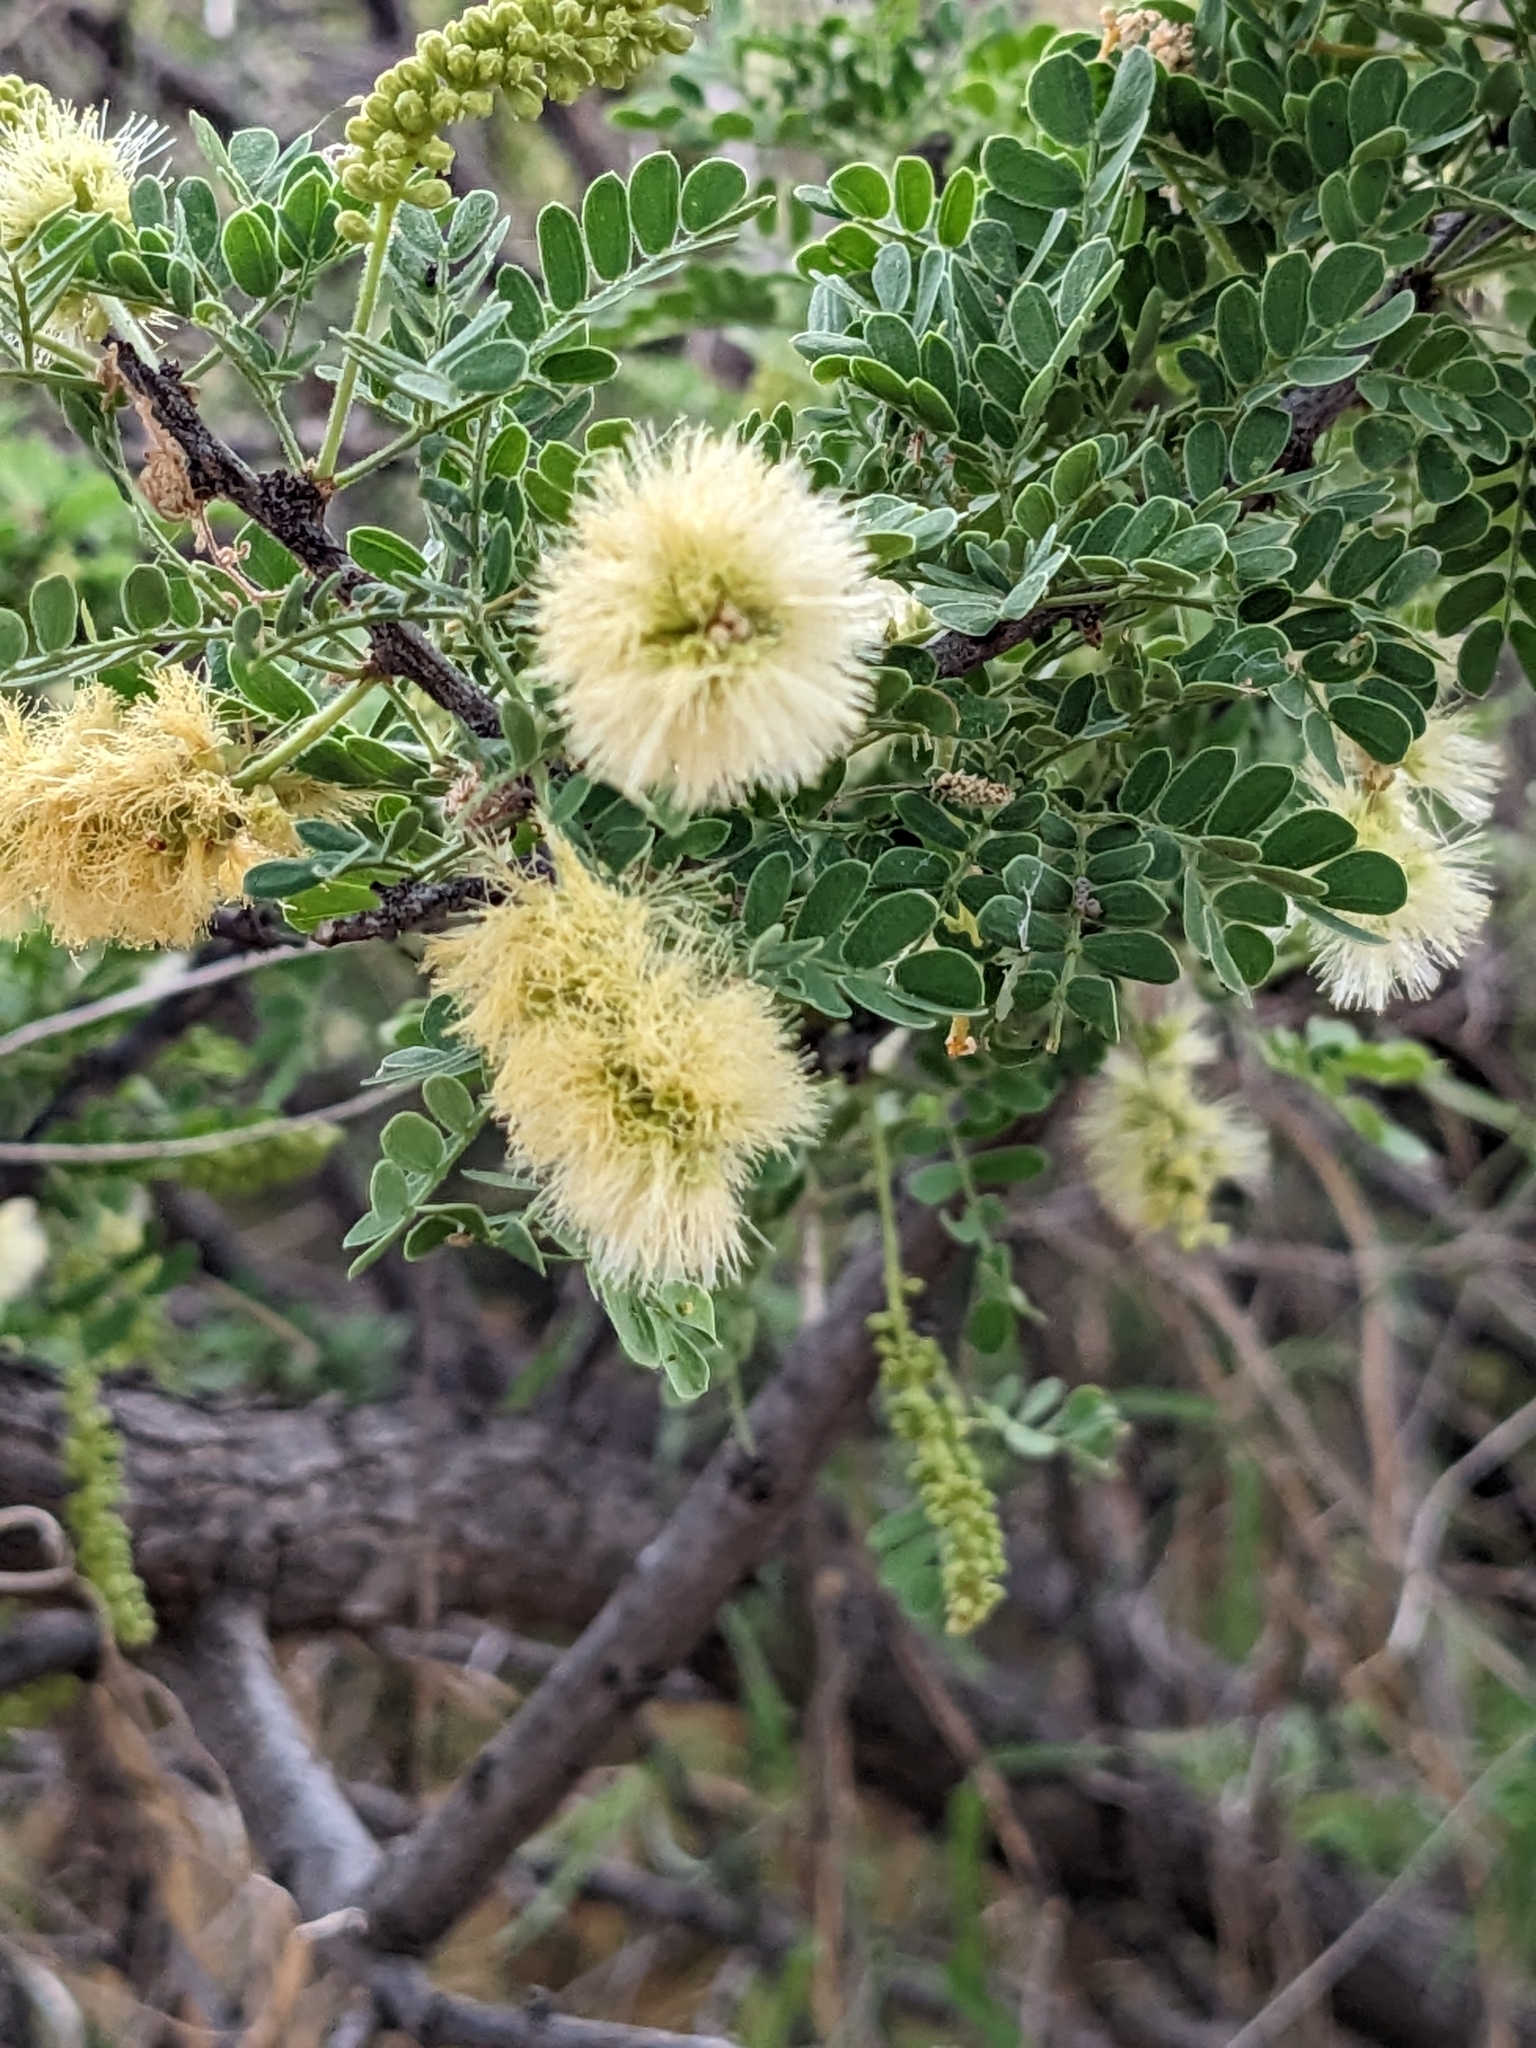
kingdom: Plantae
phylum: Tracheophyta
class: Magnoliopsida
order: Fabales
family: Fabaceae
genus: Senegalia
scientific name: Senegalia greggii
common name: Texas-mimosa
